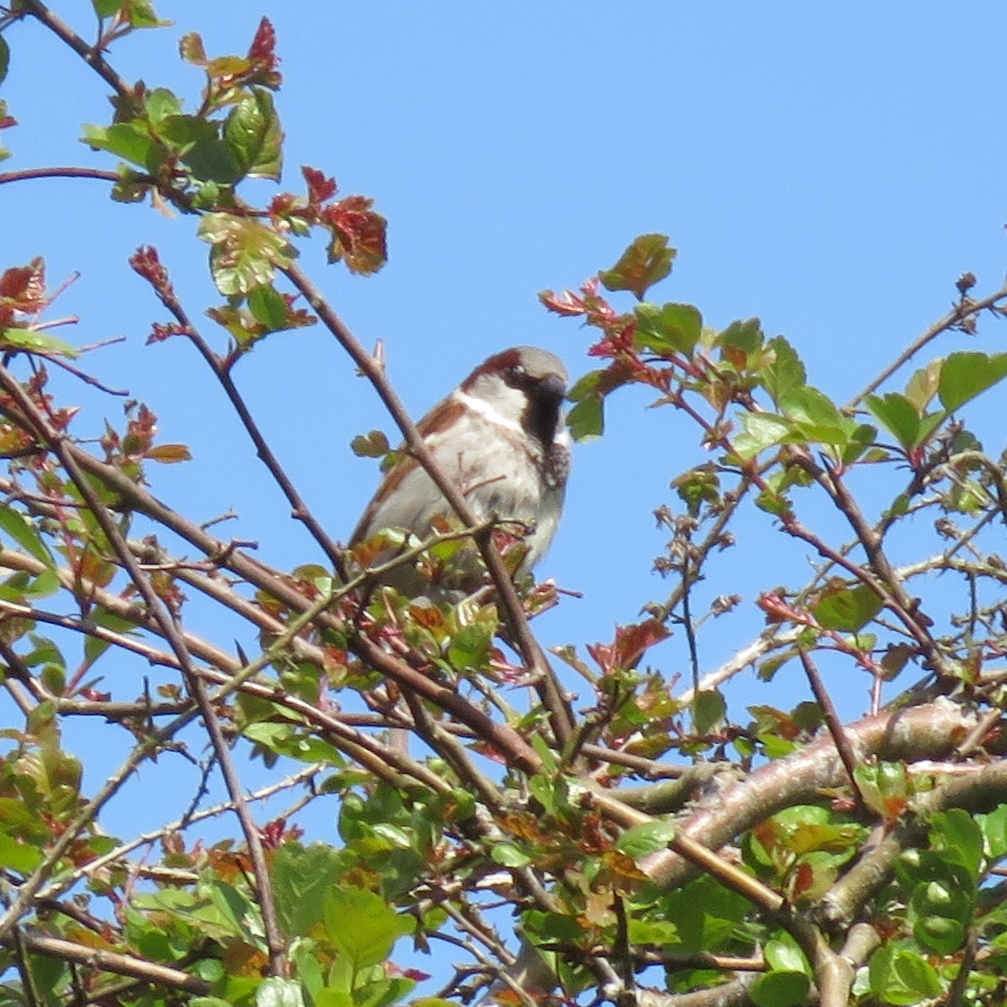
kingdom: Animalia
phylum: Chordata
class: Aves
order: Passeriformes
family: Passeridae
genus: Passer
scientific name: Passer domesticus
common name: House sparrow
